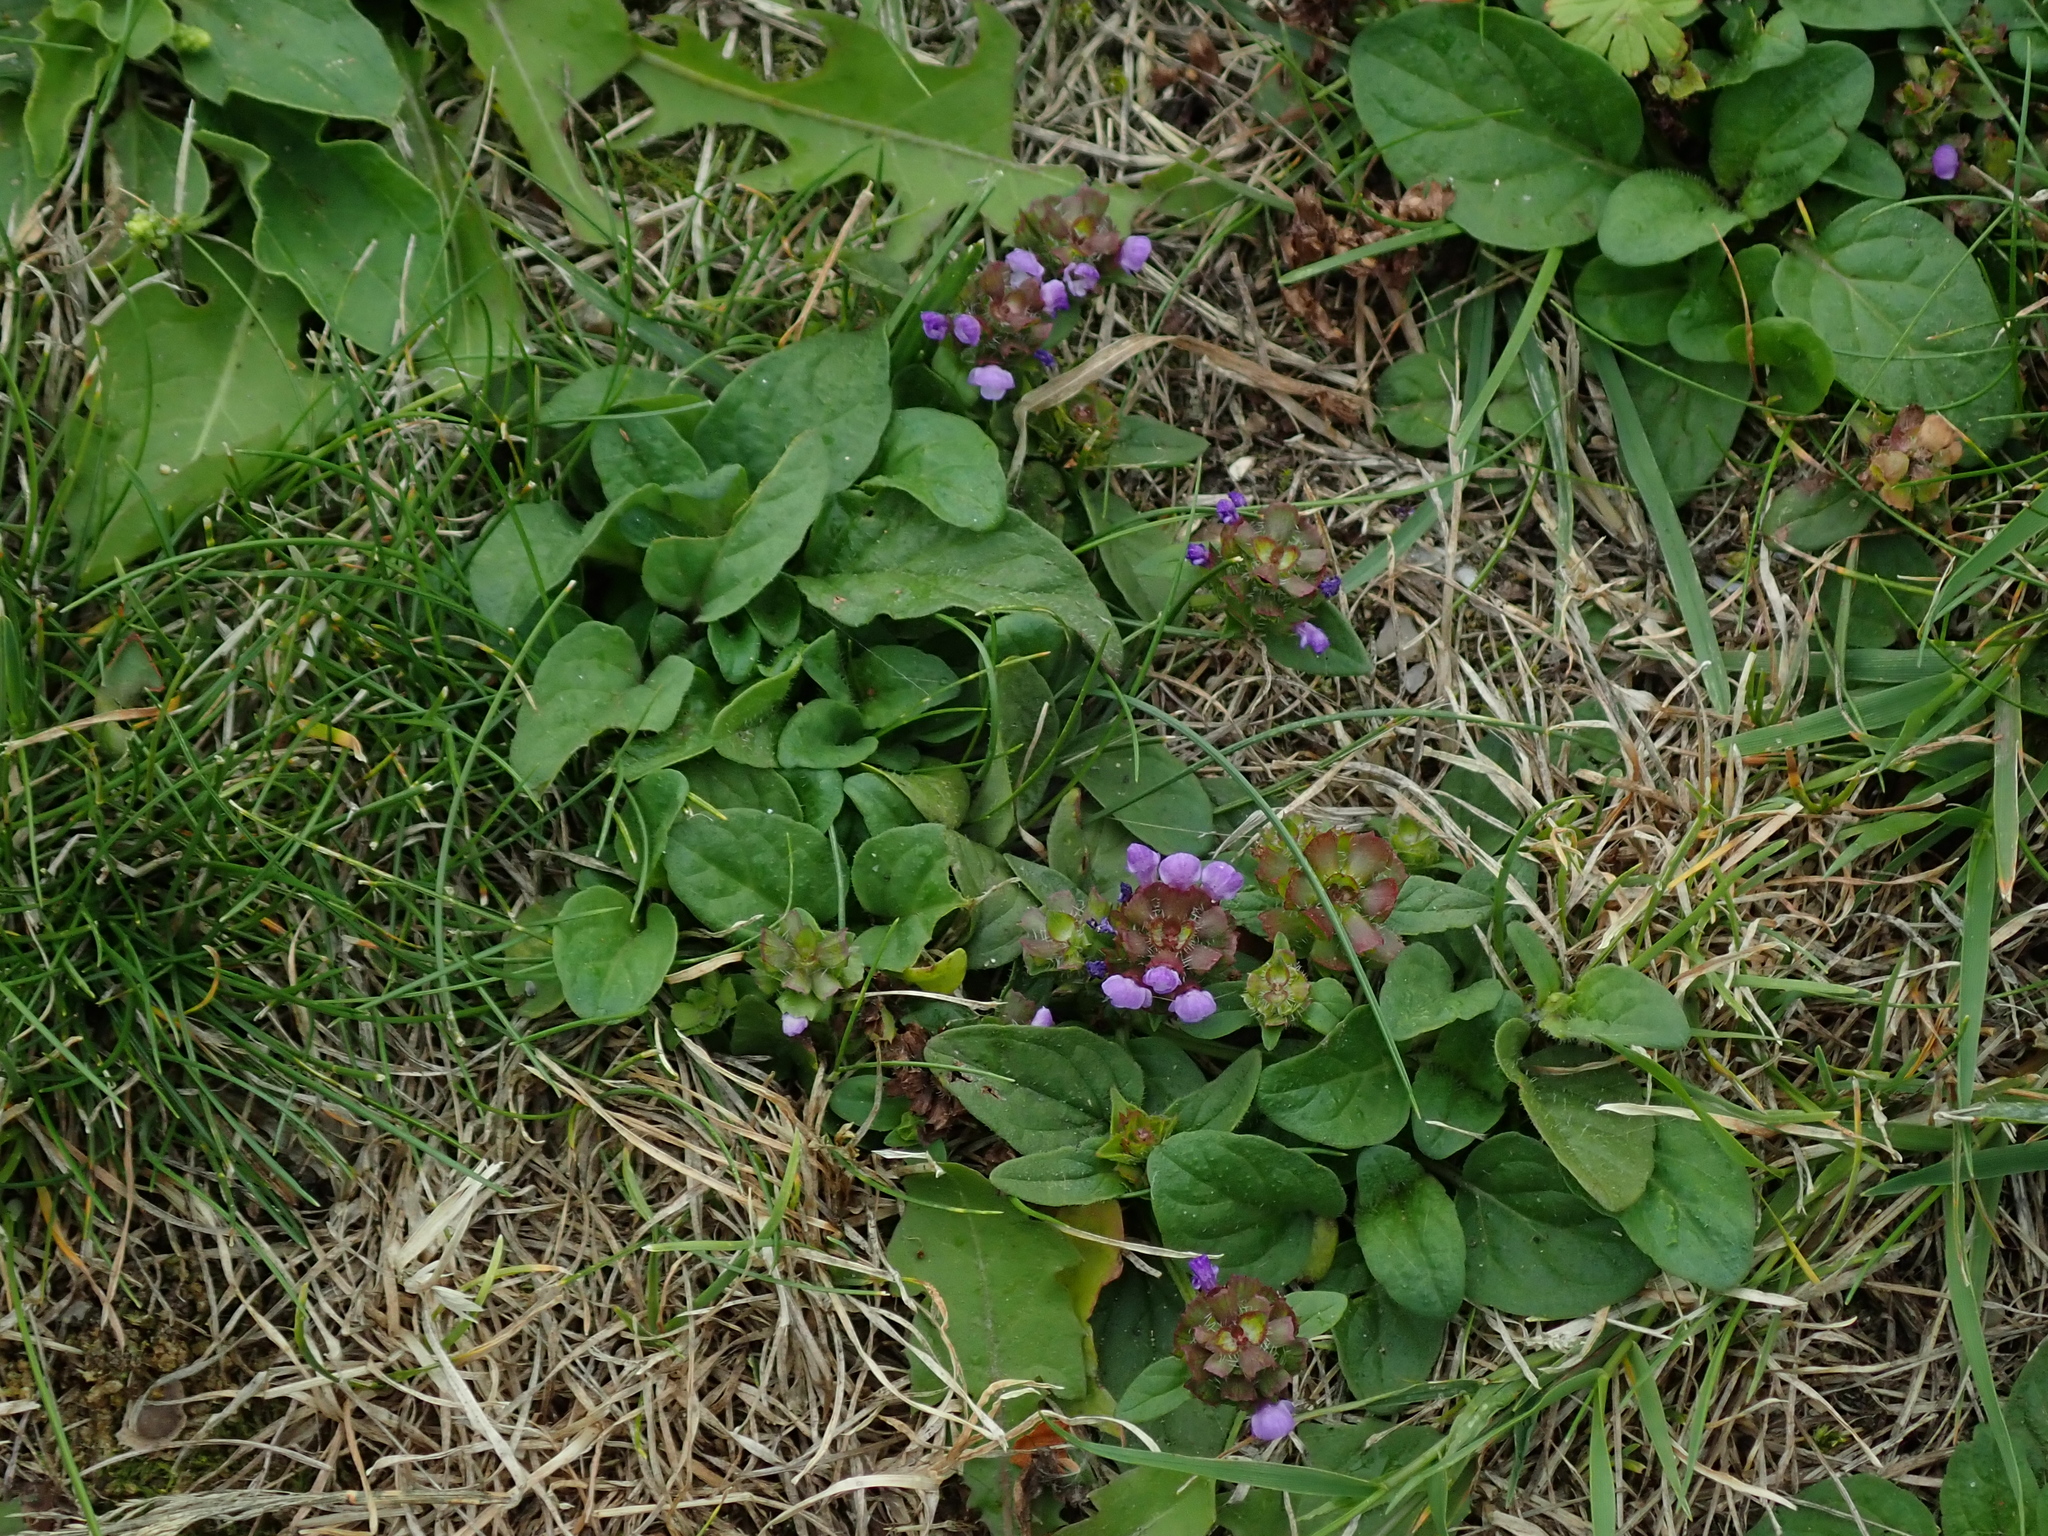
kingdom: Plantae
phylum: Tracheophyta
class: Magnoliopsida
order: Lamiales
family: Lamiaceae
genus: Prunella
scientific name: Prunella vulgaris
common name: Heal-all
